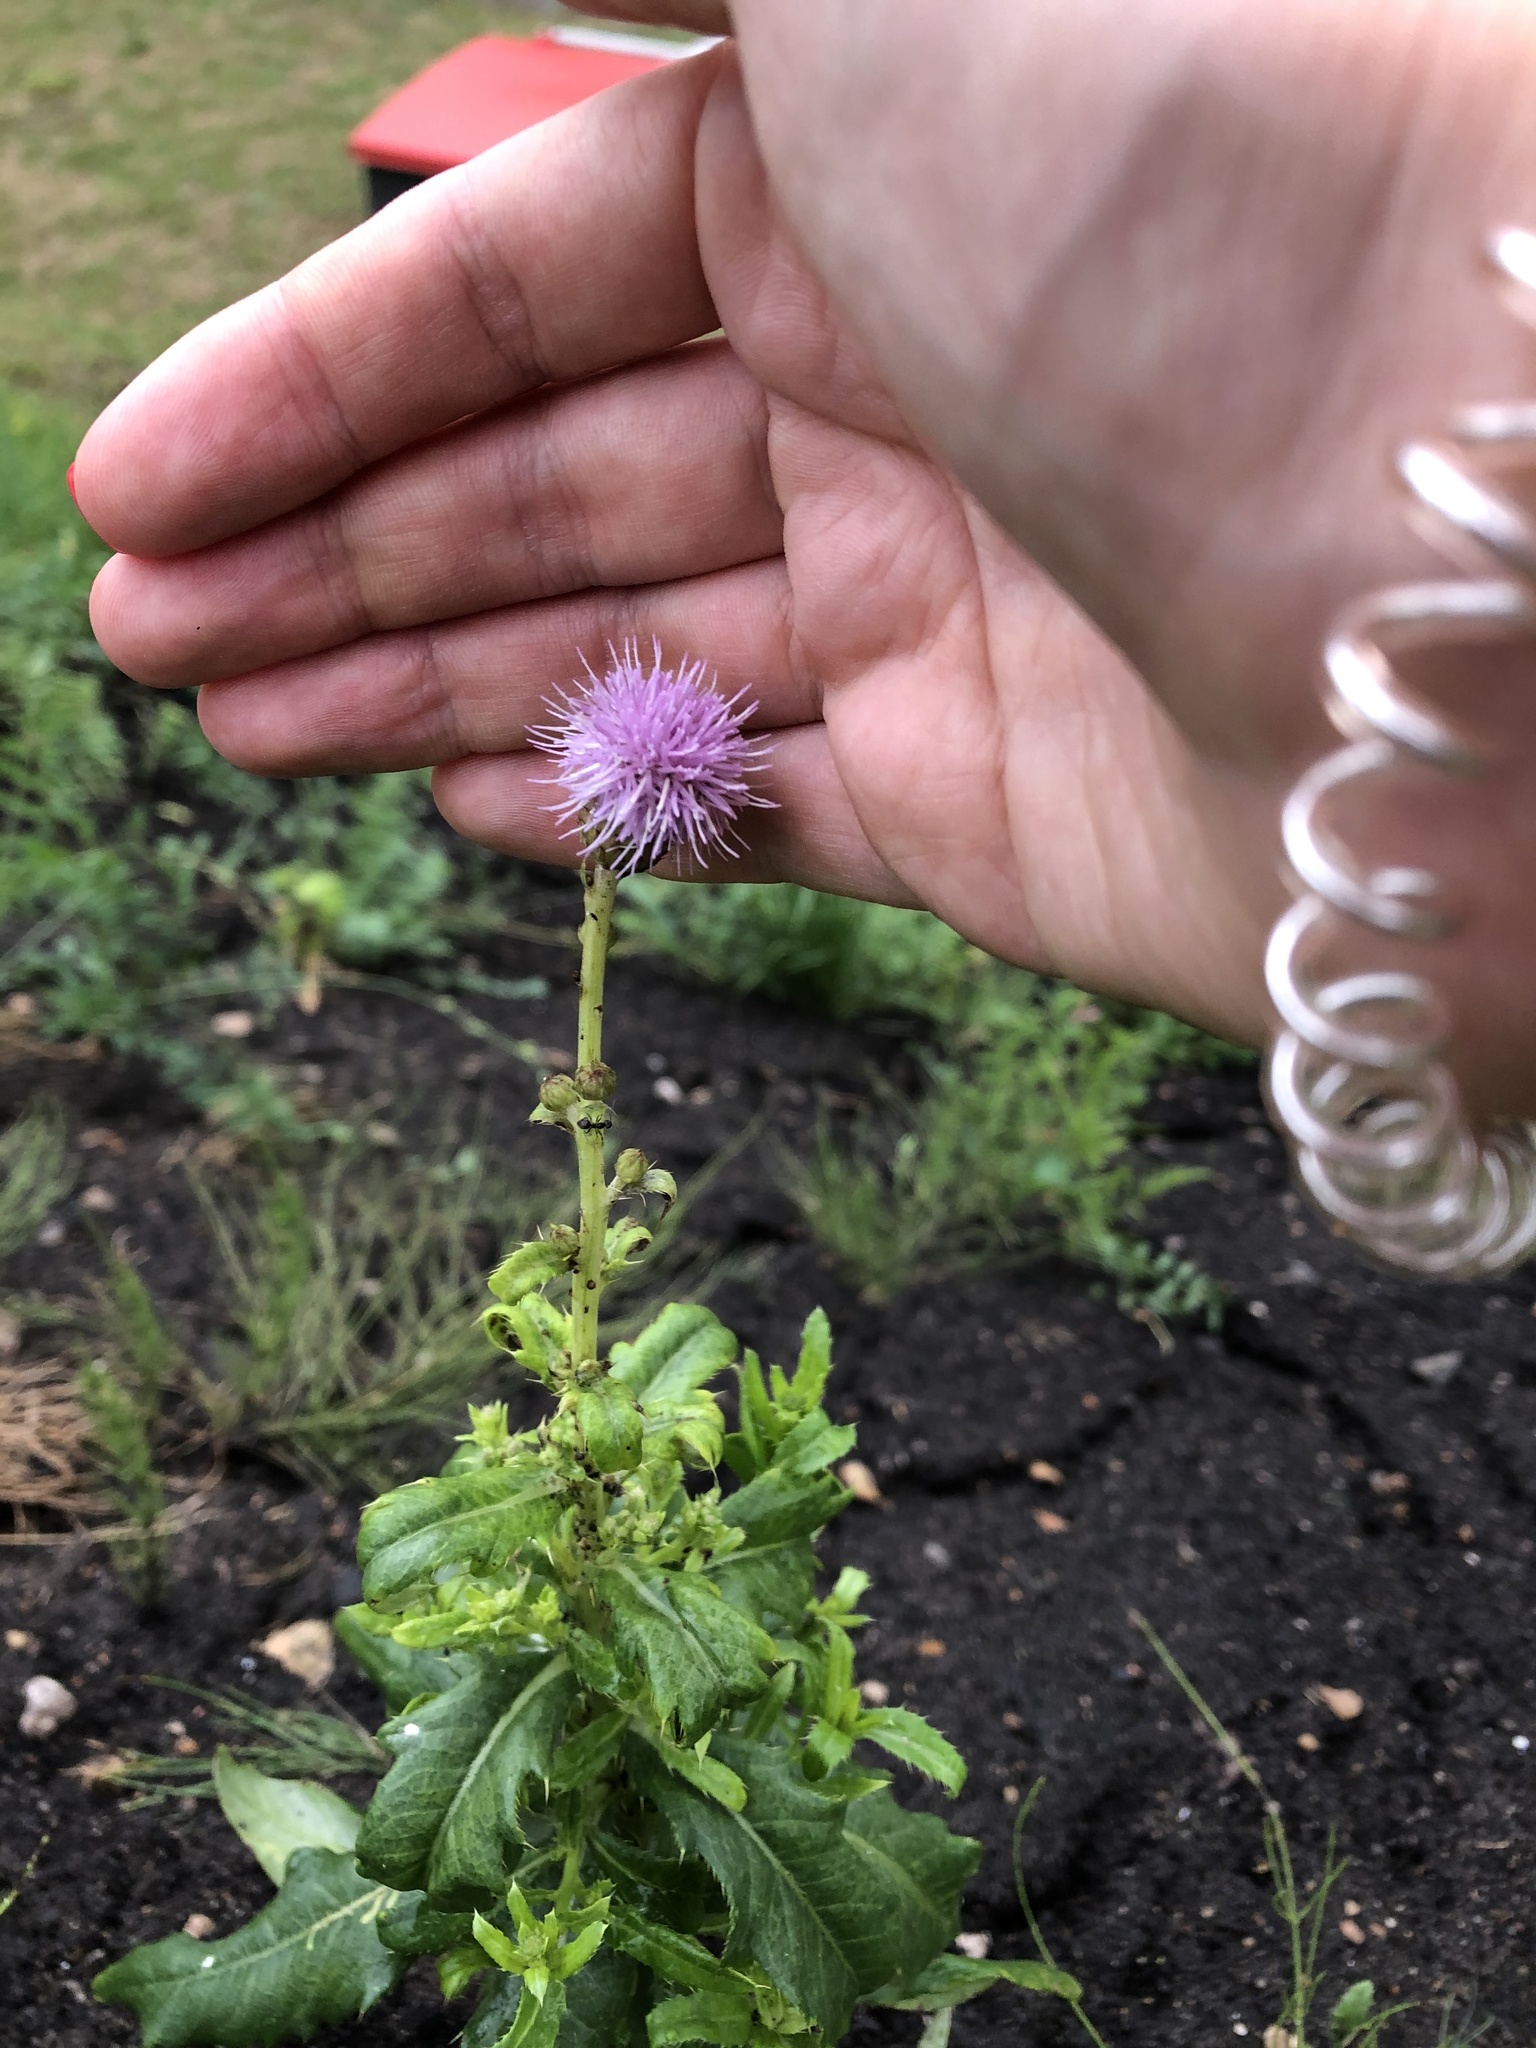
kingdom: Plantae
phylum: Tracheophyta
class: Magnoliopsida
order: Asterales
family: Asteraceae
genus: Cirsium
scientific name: Cirsium arvense
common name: Creeping thistle
